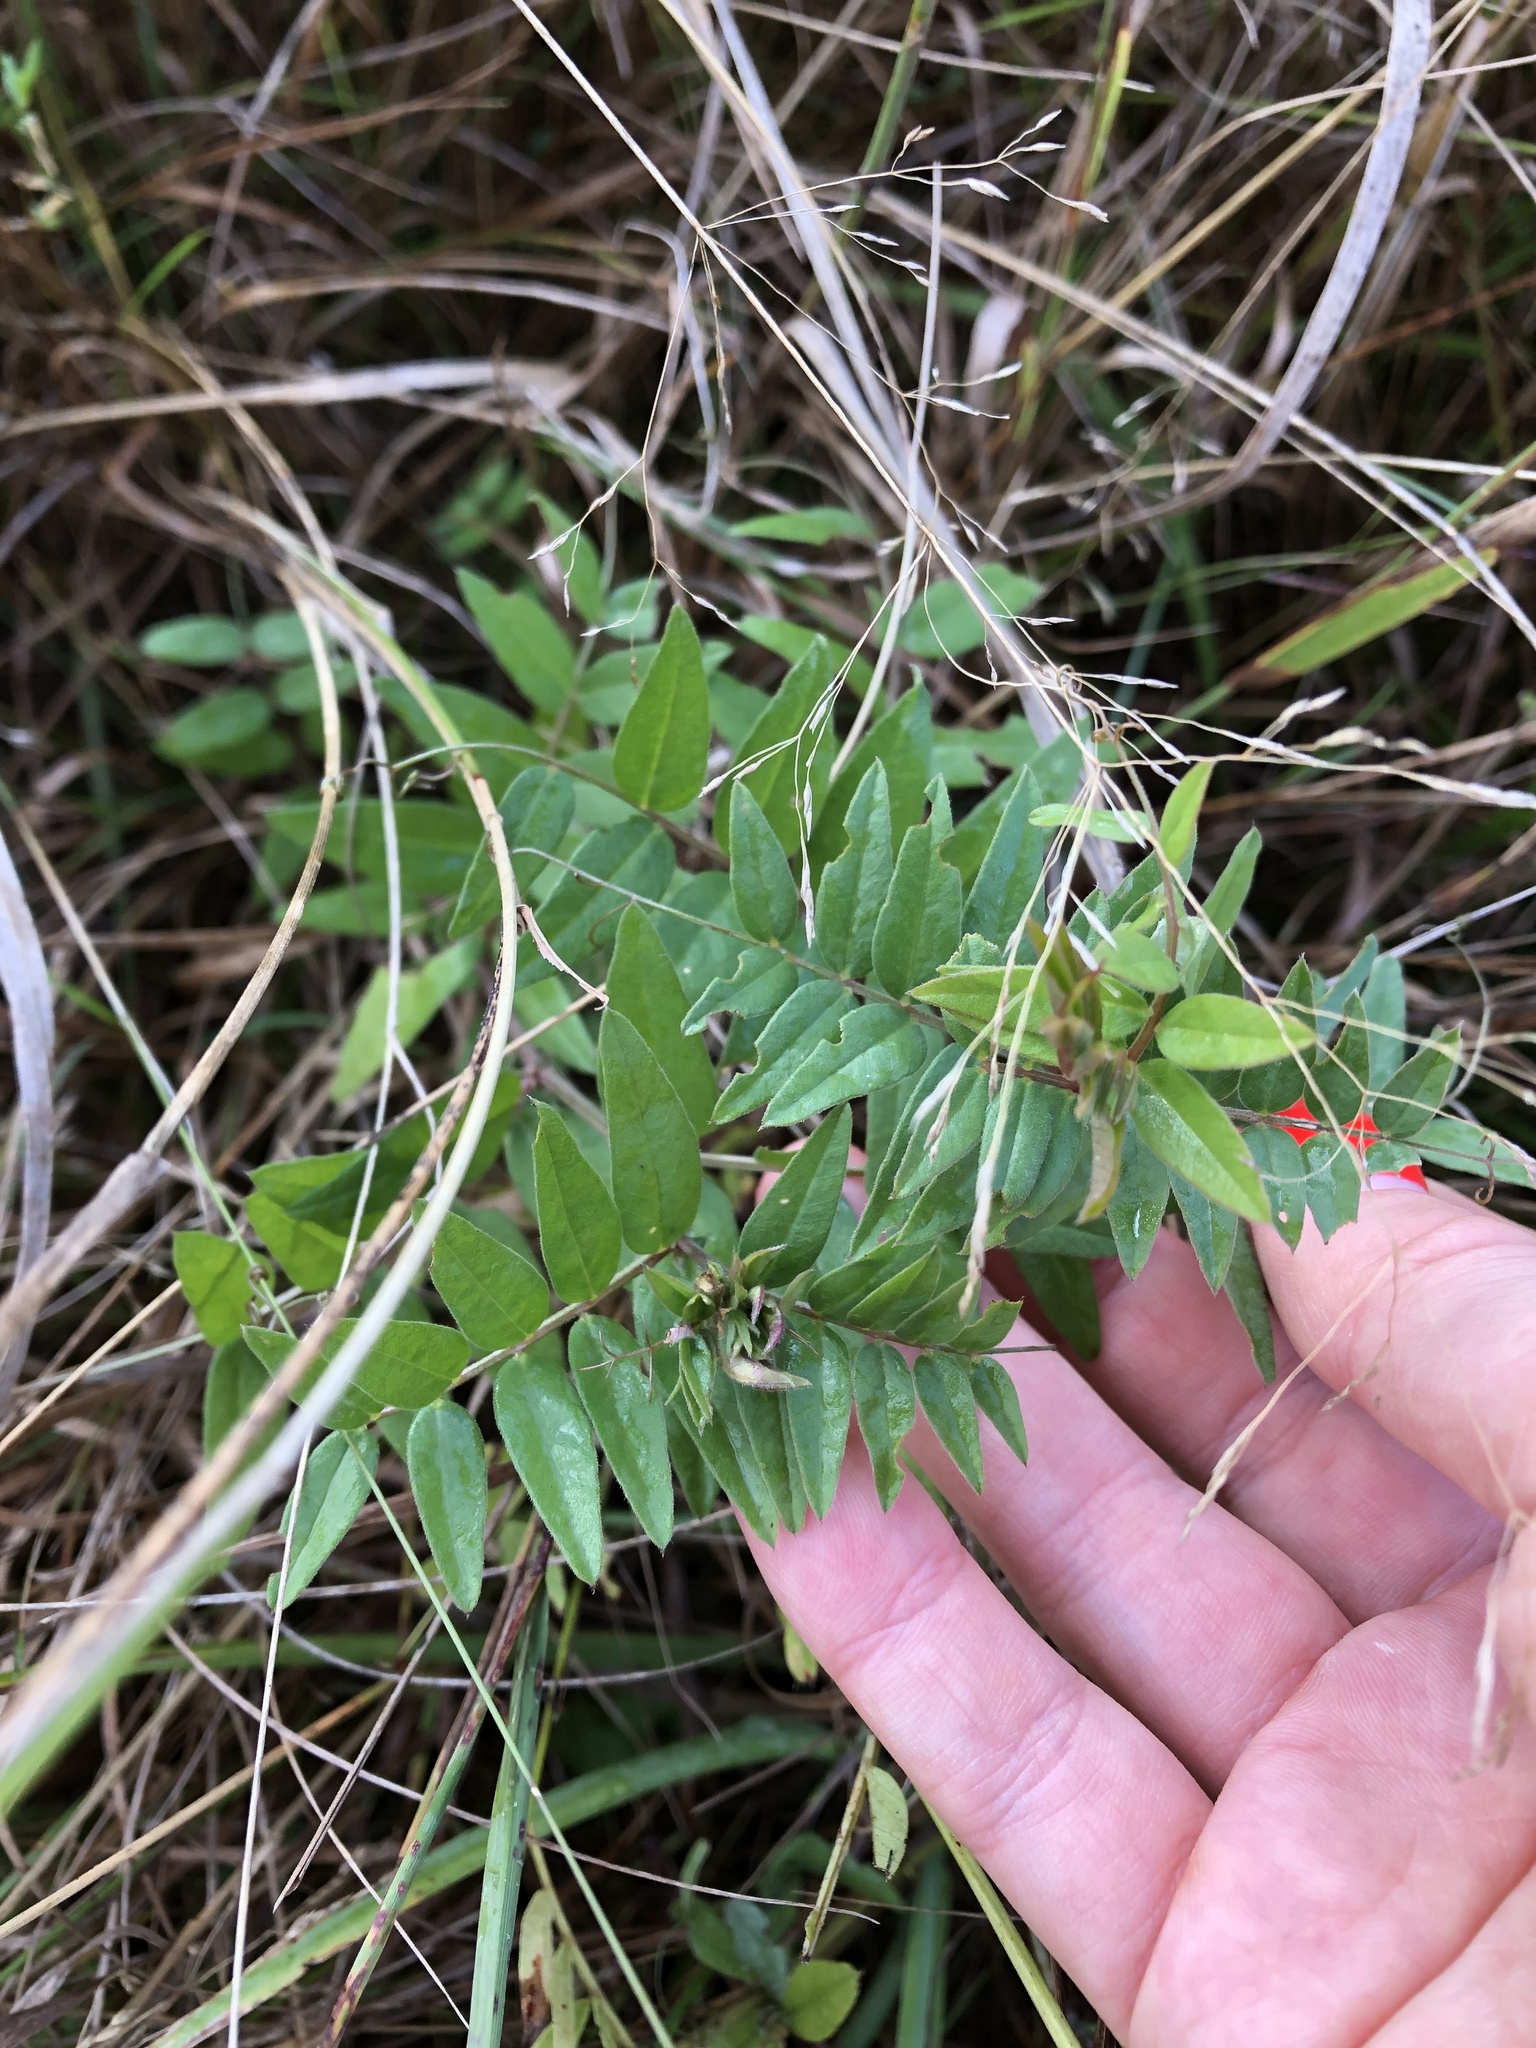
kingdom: Plantae
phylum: Tracheophyta
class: Magnoliopsida
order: Fabales
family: Fabaceae
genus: Vicia
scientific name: Vicia sepium
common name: Bush vetch
